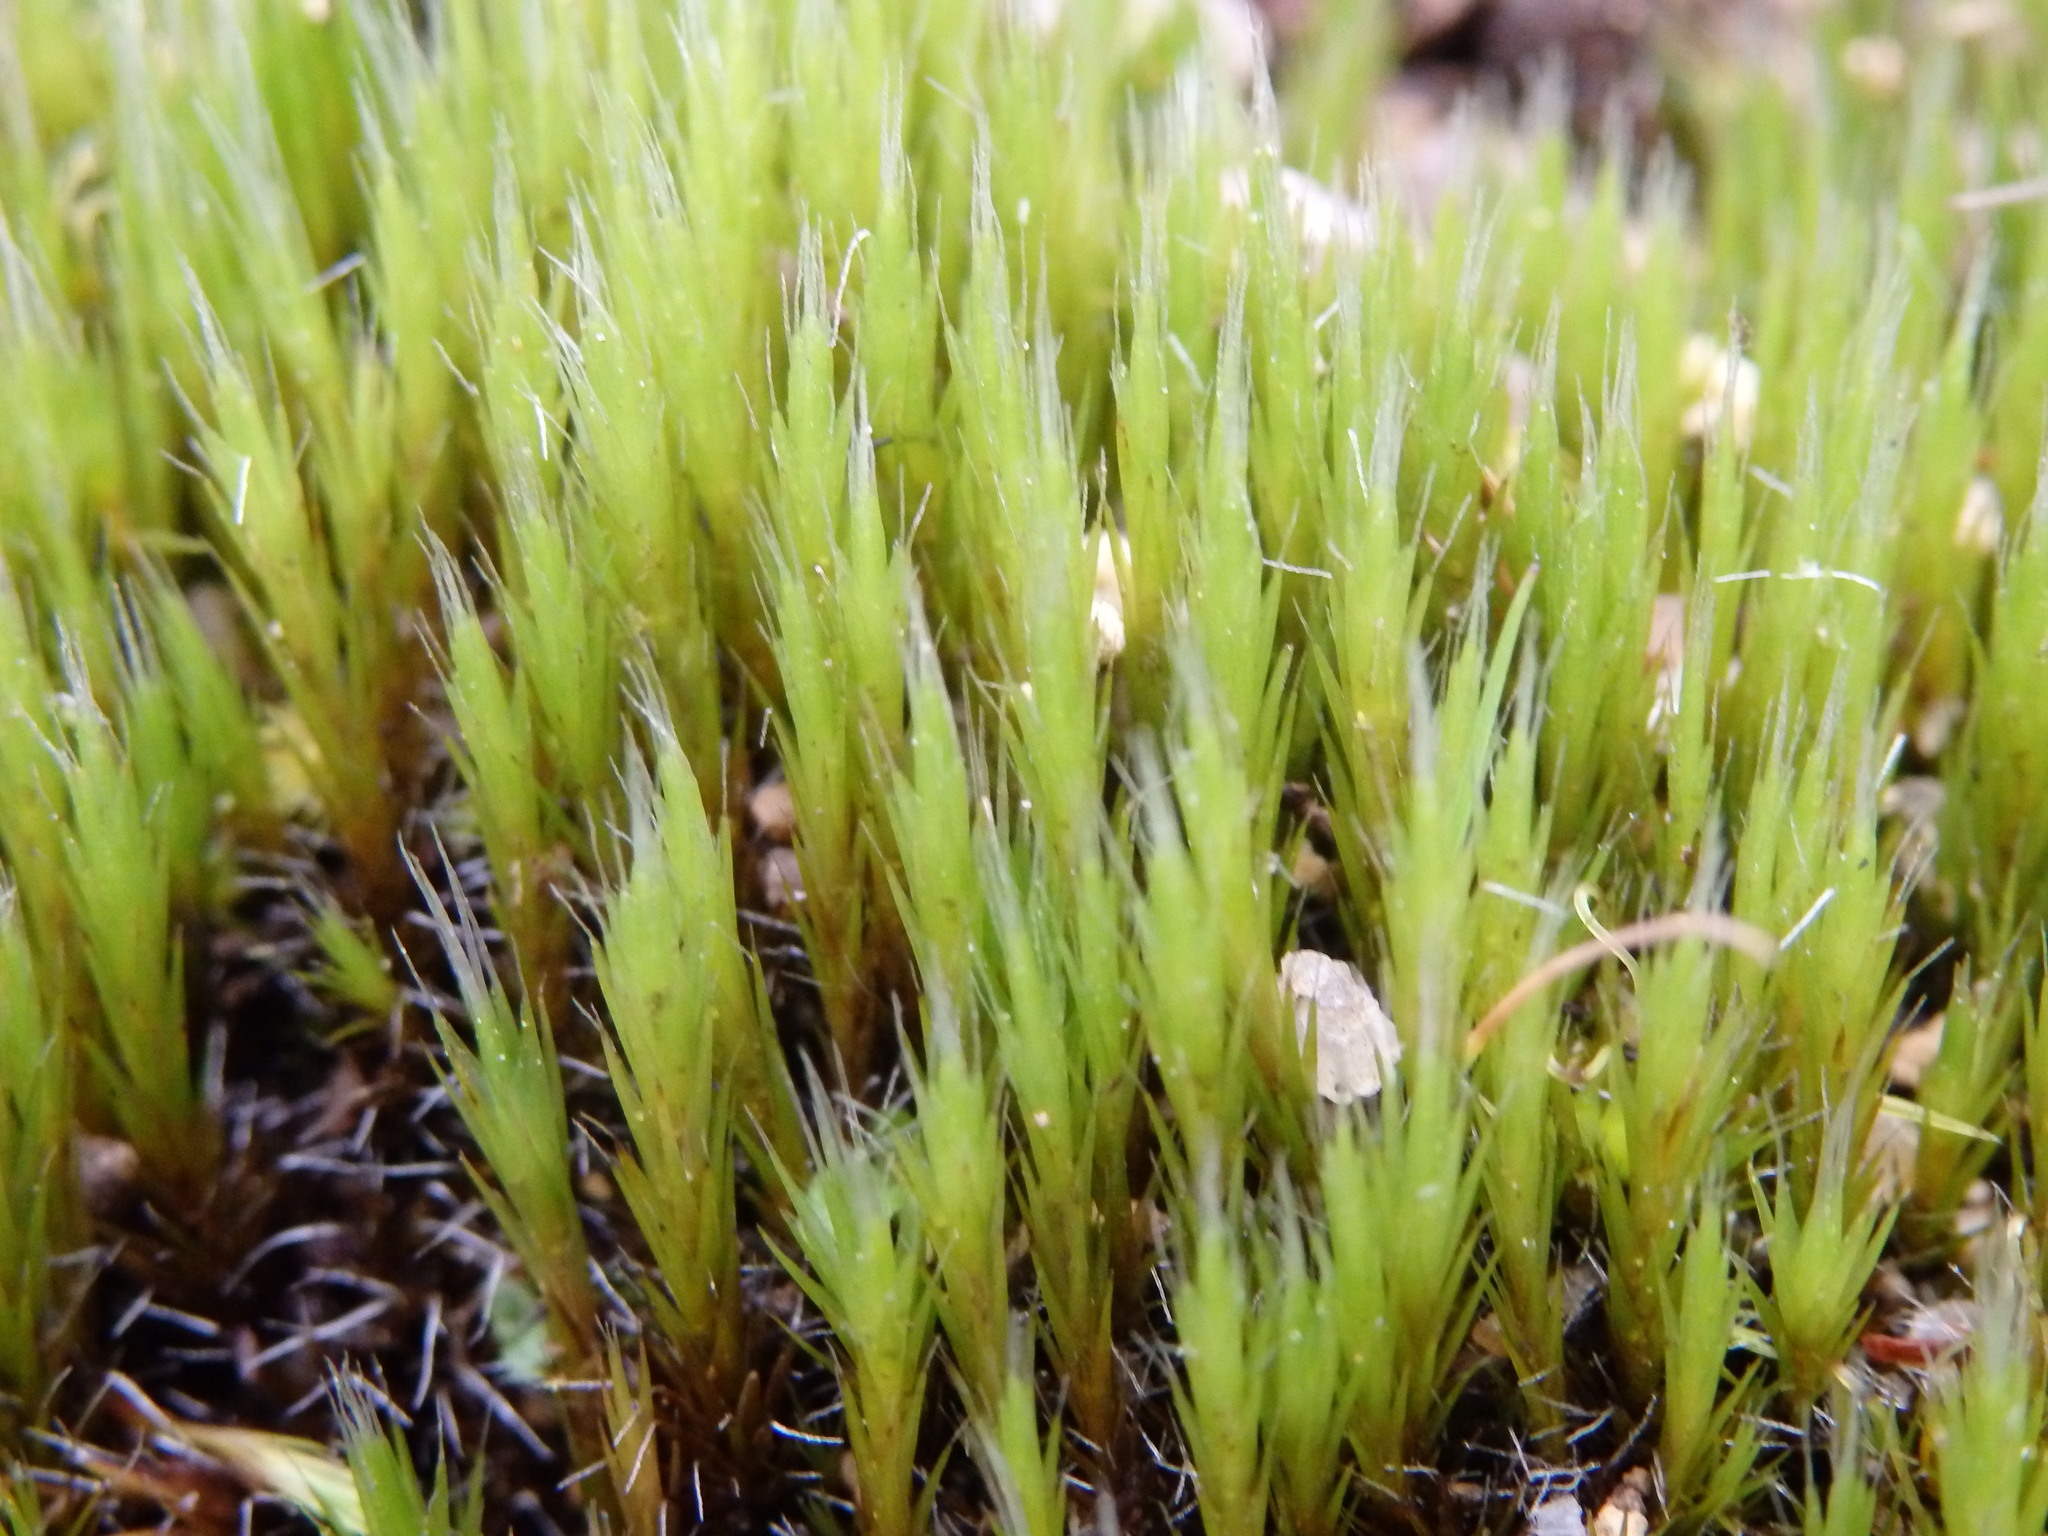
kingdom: Plantae
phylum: Bryophyta
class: Bryopsida
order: Dicranales
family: Leucobryaceae
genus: Campylopus
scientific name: Campylopus introflexus
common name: Heath star moss
